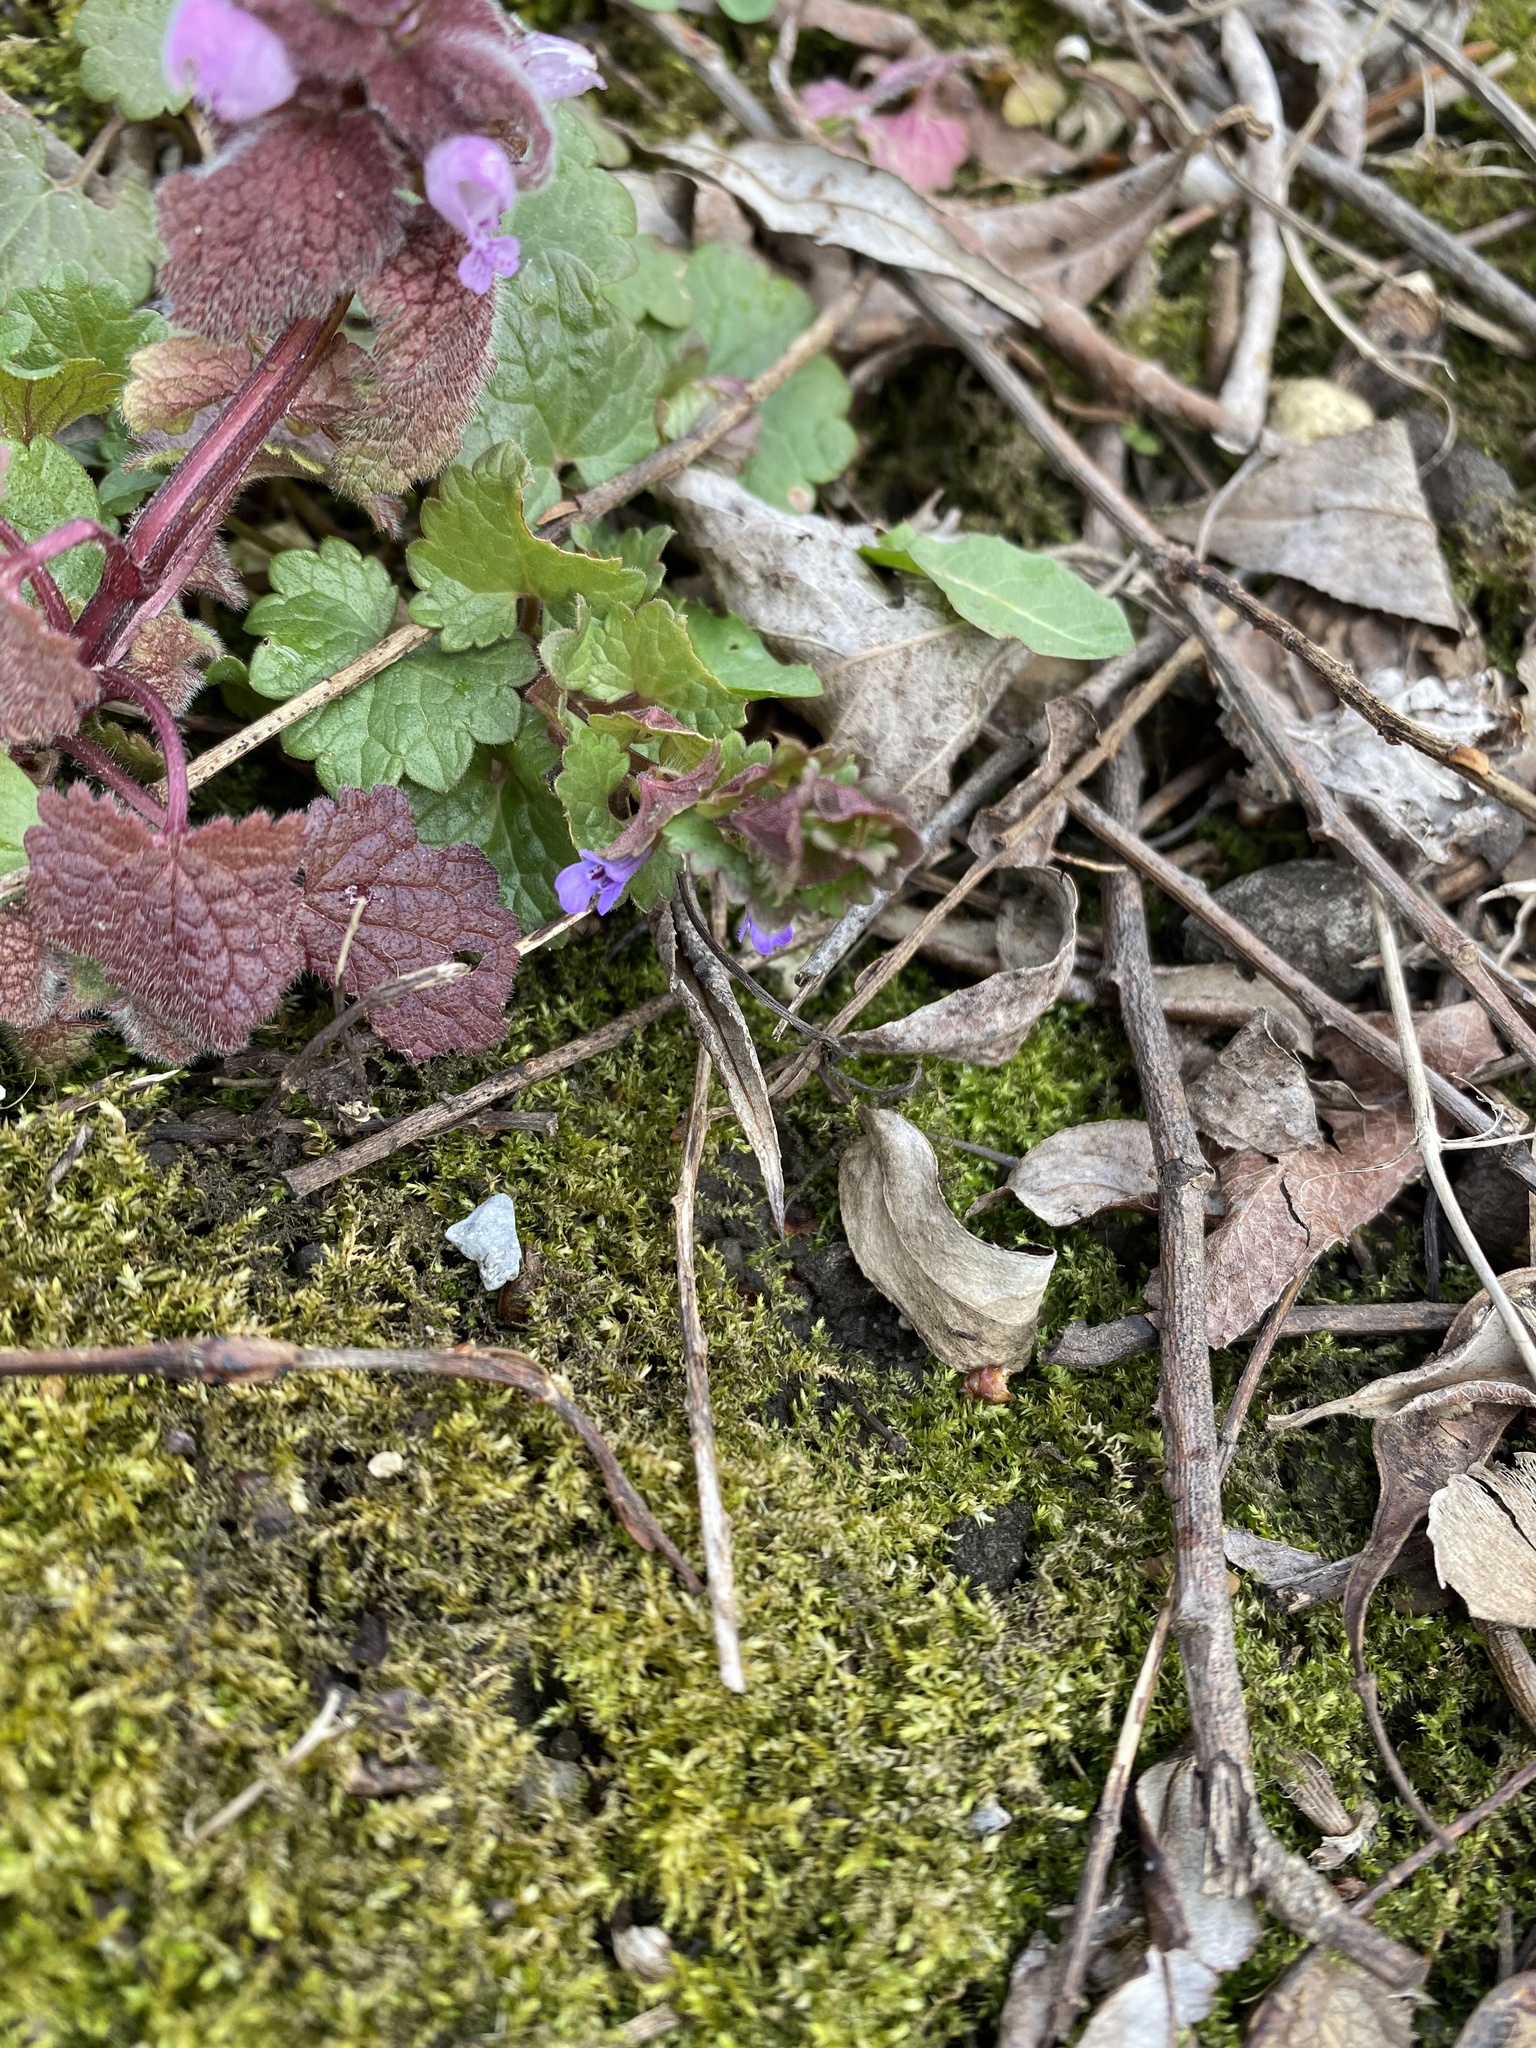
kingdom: Plantae
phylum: Tracheophyta
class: Magnoliopsida
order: Lamiales
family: Lamiaceae
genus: Glechoma
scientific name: Glechoma hederacea
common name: Ground ivy
